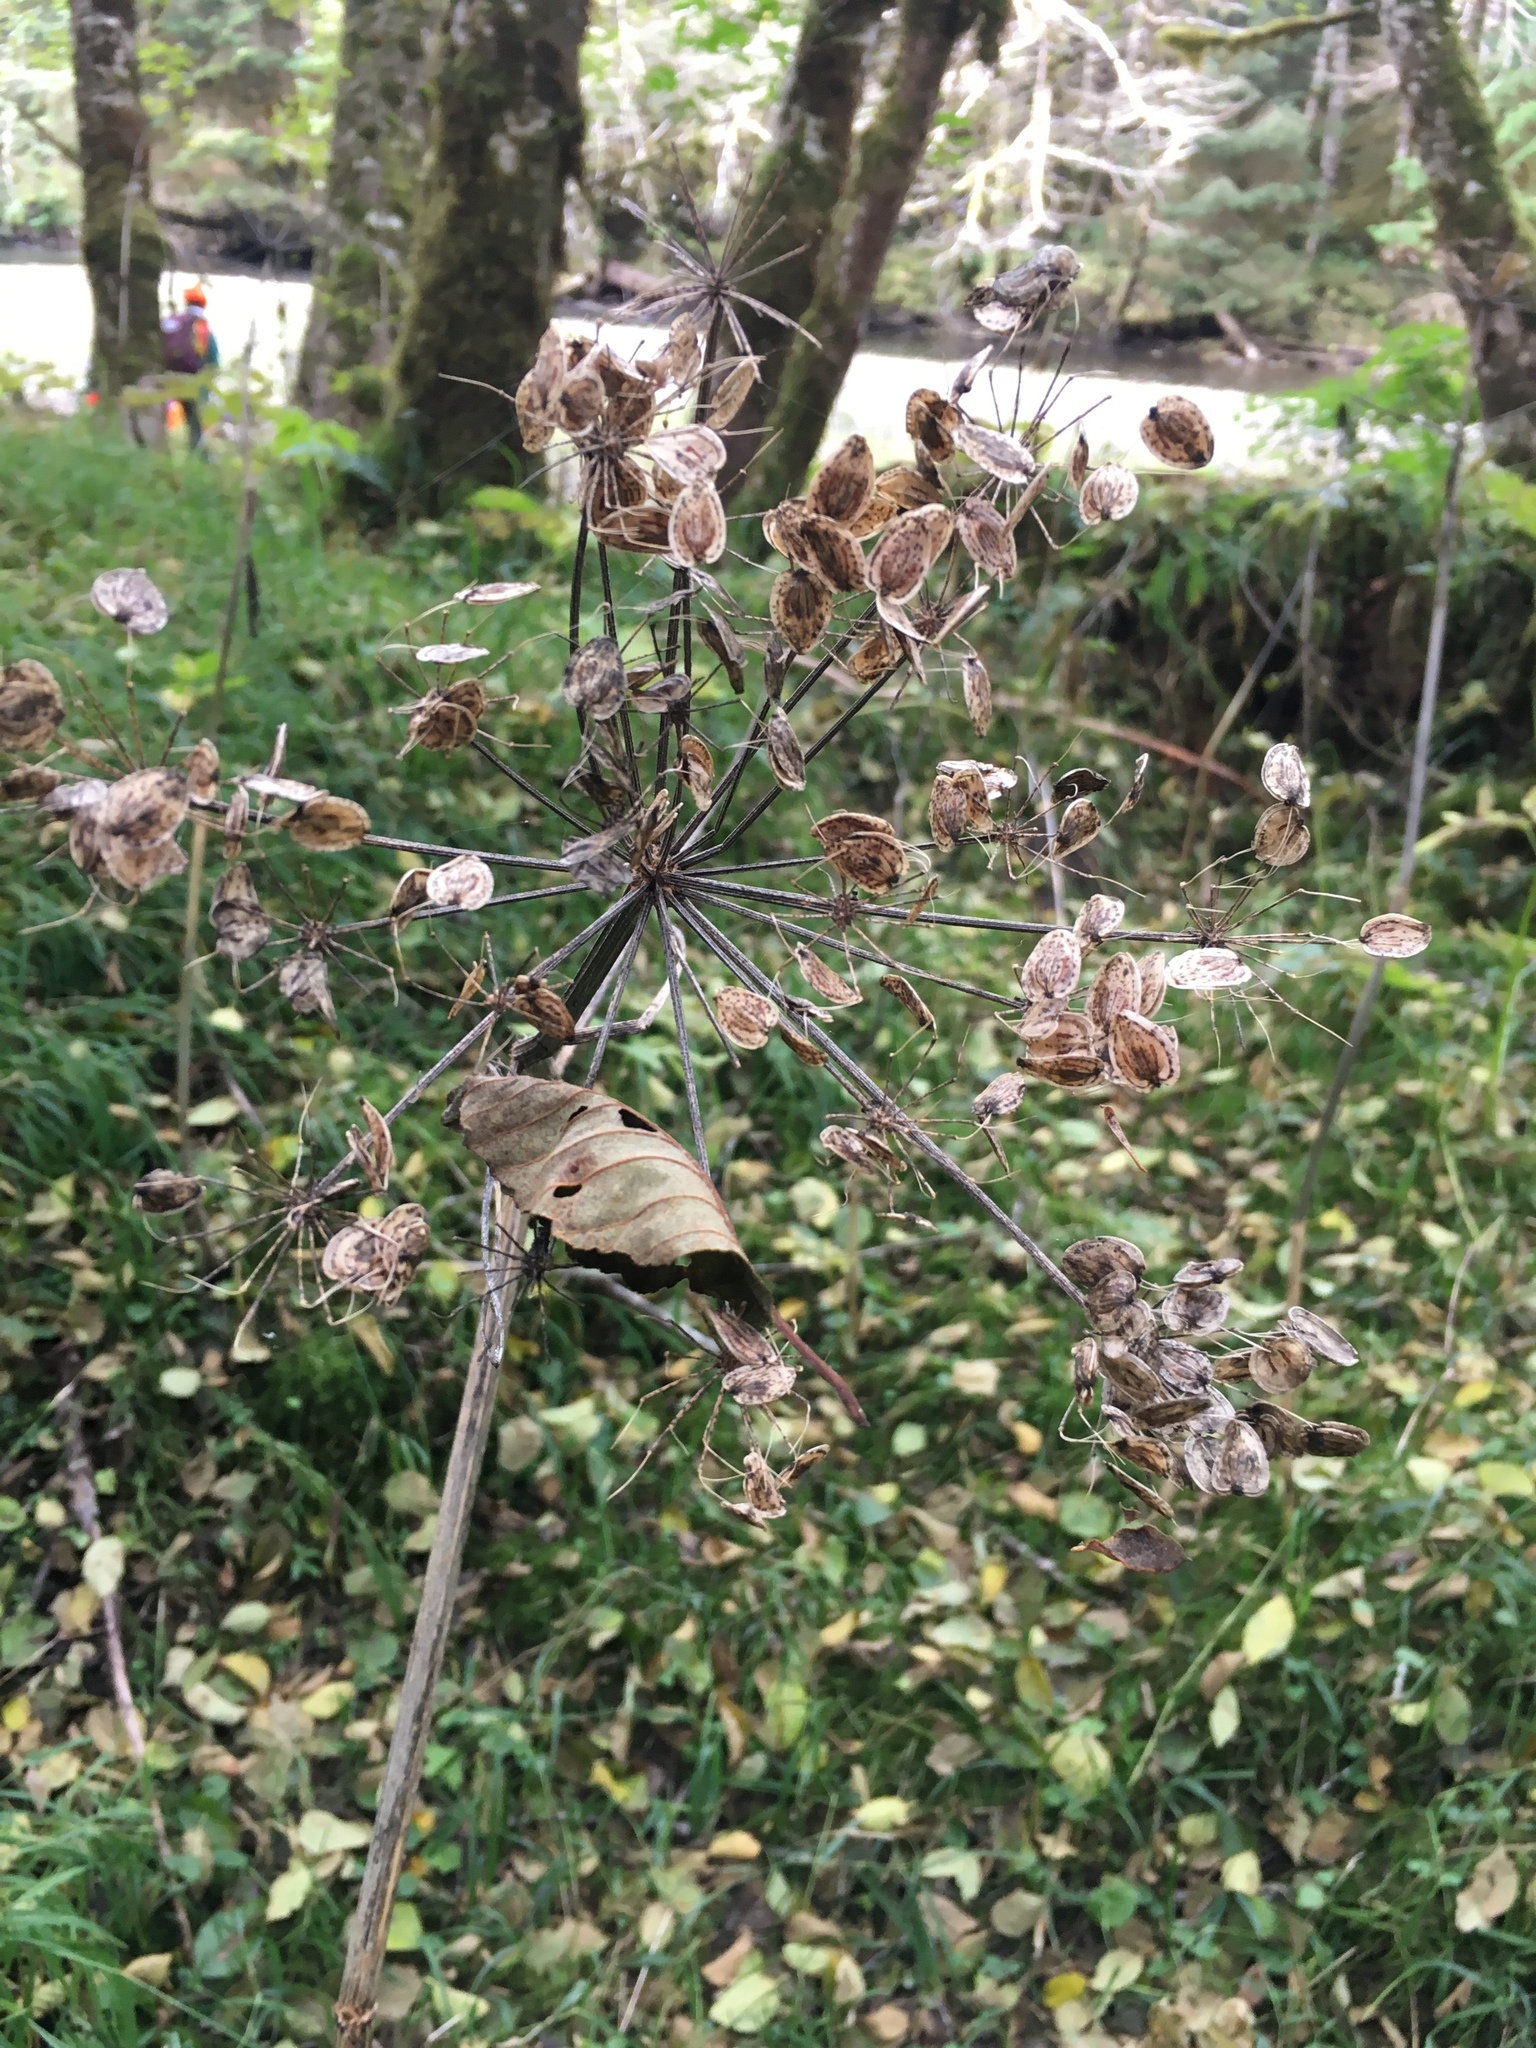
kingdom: Plantae
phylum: Tracheophyta
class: Magnoliopsida
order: Apiales
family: Apiaceae
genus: Heracleum
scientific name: Heracleum maximum
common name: American cow parsnip
